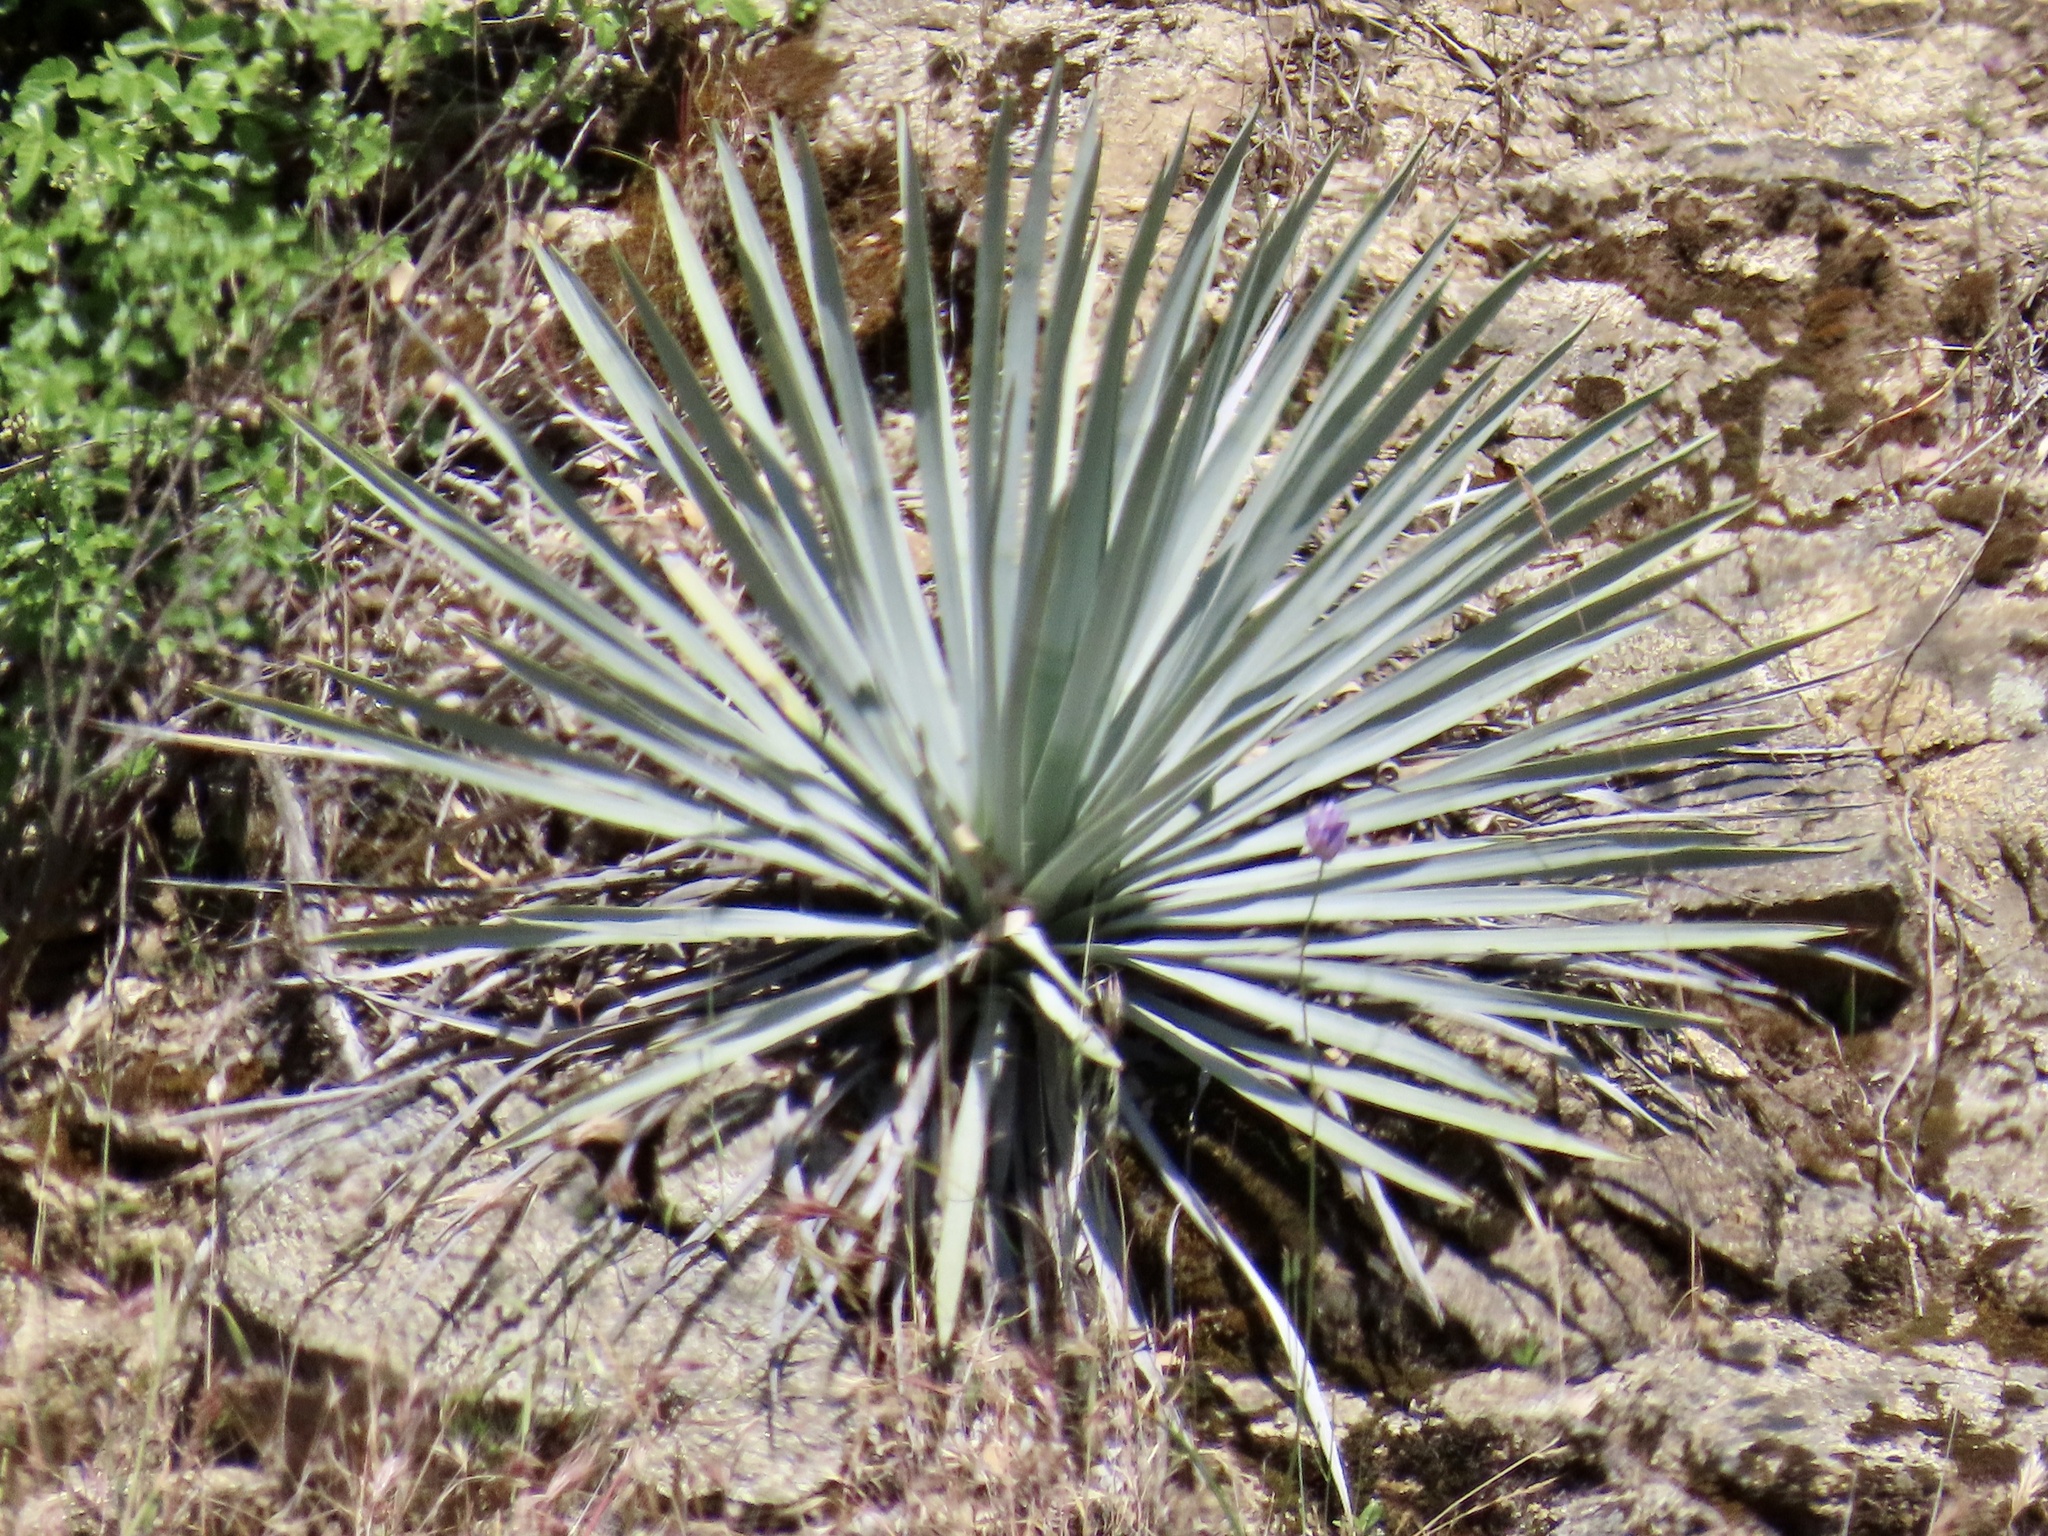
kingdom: Plantae
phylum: Tracheophyta
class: Liliopsida
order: Asparagales
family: Asparagaceae
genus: Hesperoyucca
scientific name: Hesperoyucca whipplei
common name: Our lord's-candle
